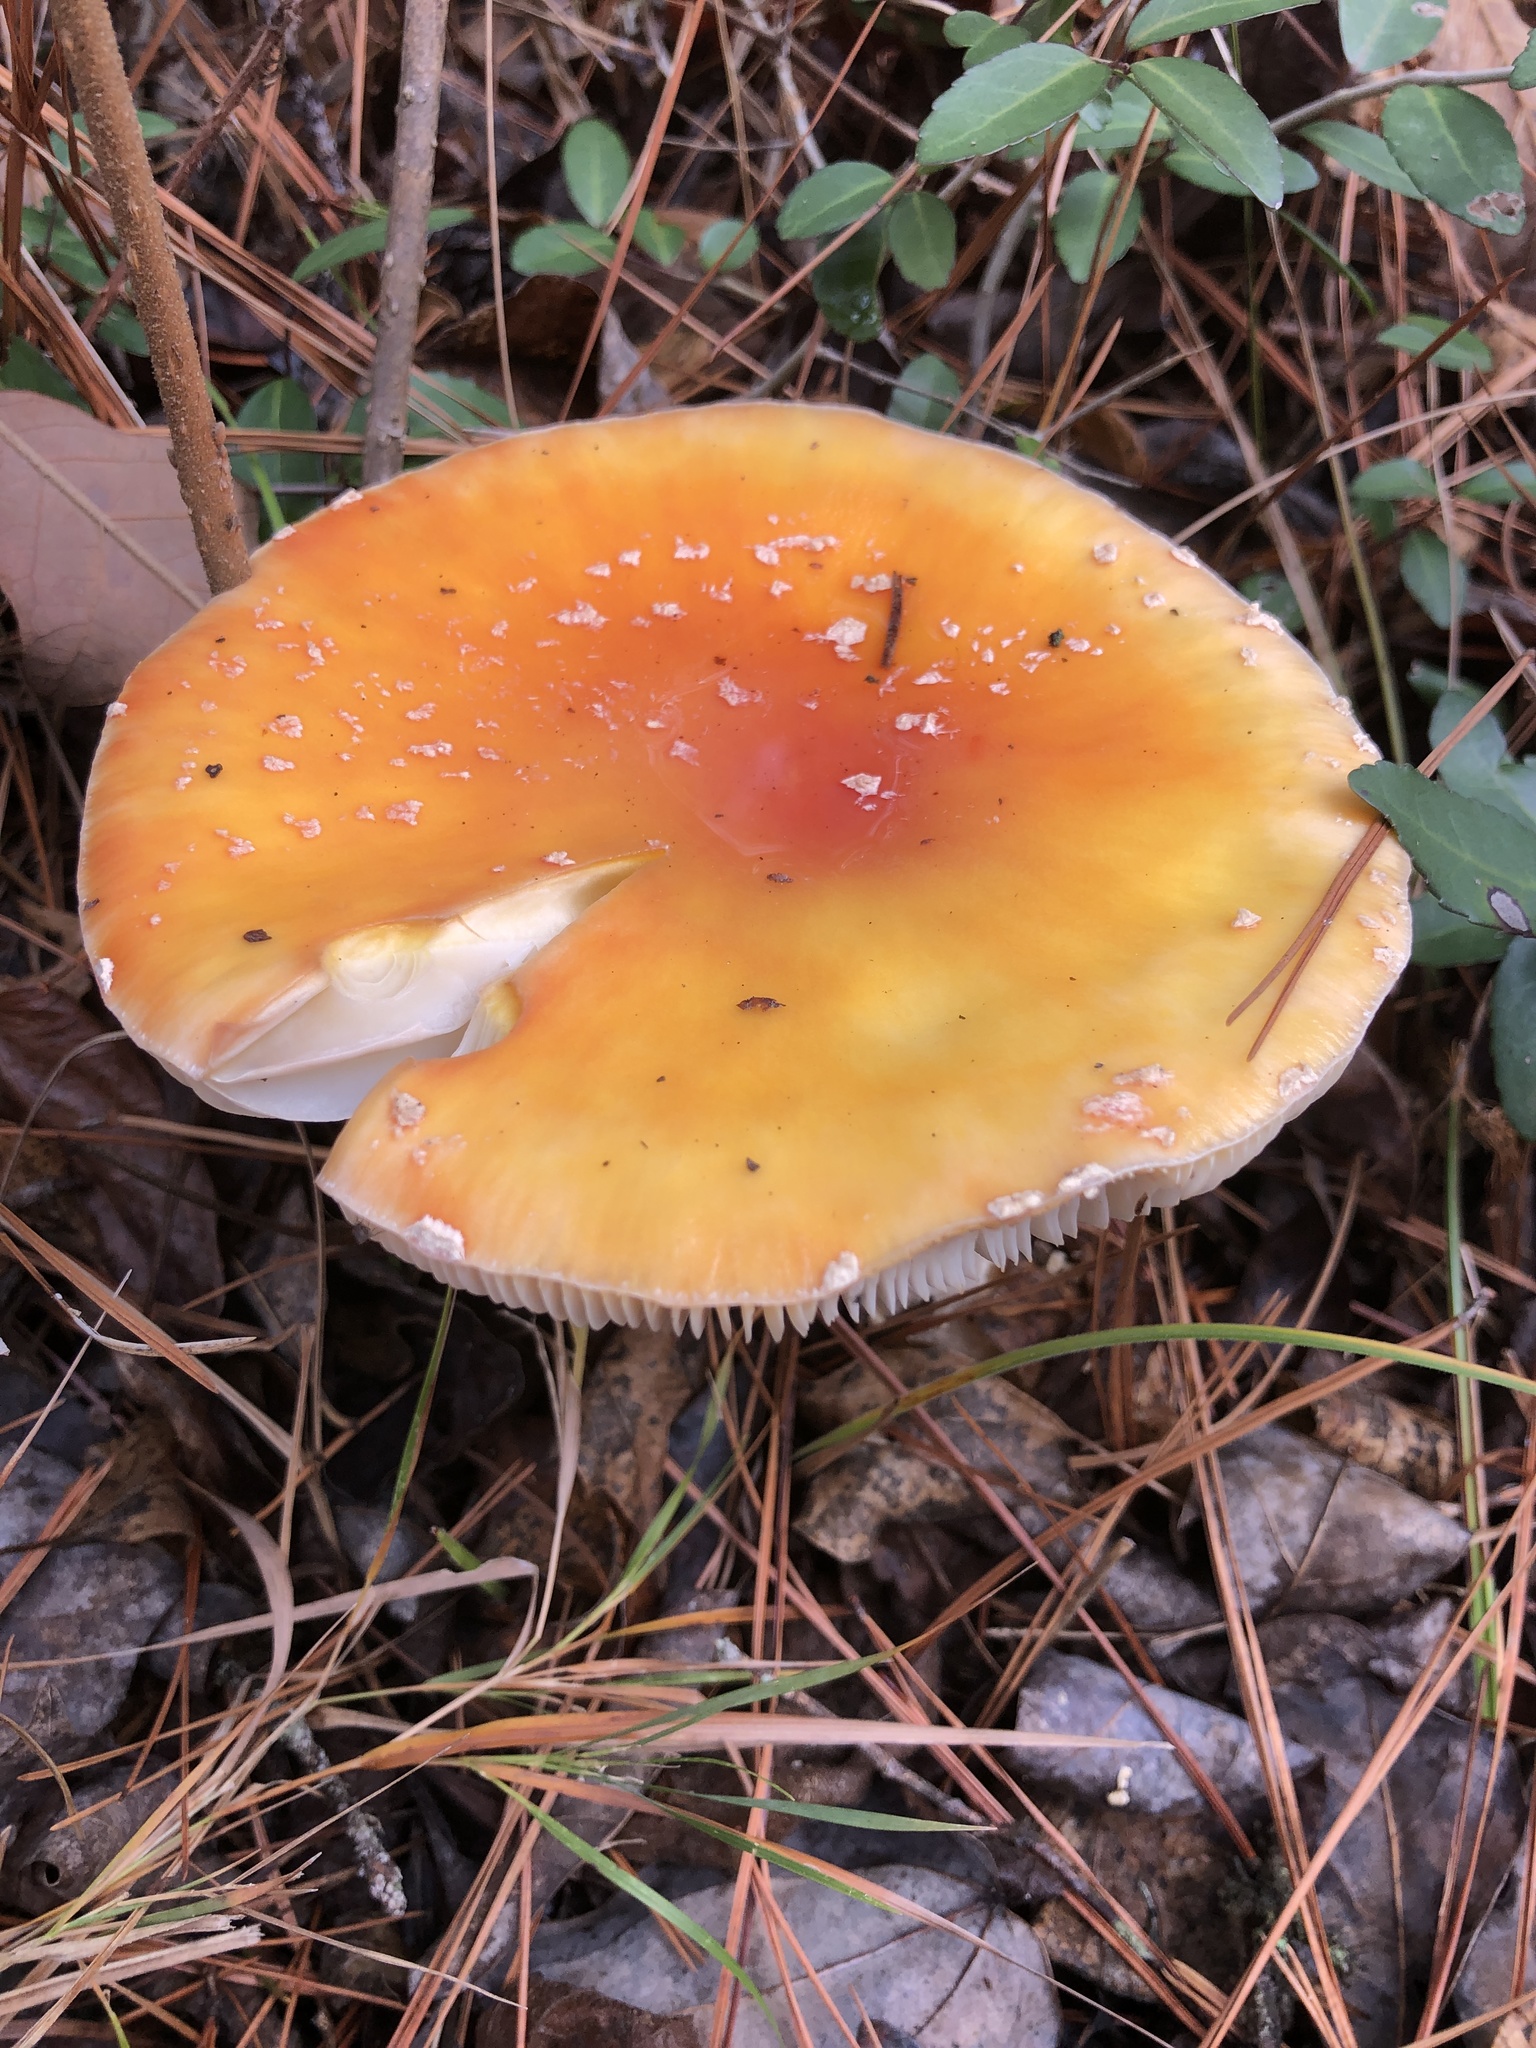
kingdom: Fungi
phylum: Basidiomycota
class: Agaricomycetes
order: Agaricales
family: Amanitaceae
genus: Amanita
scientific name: Amanita persicina
